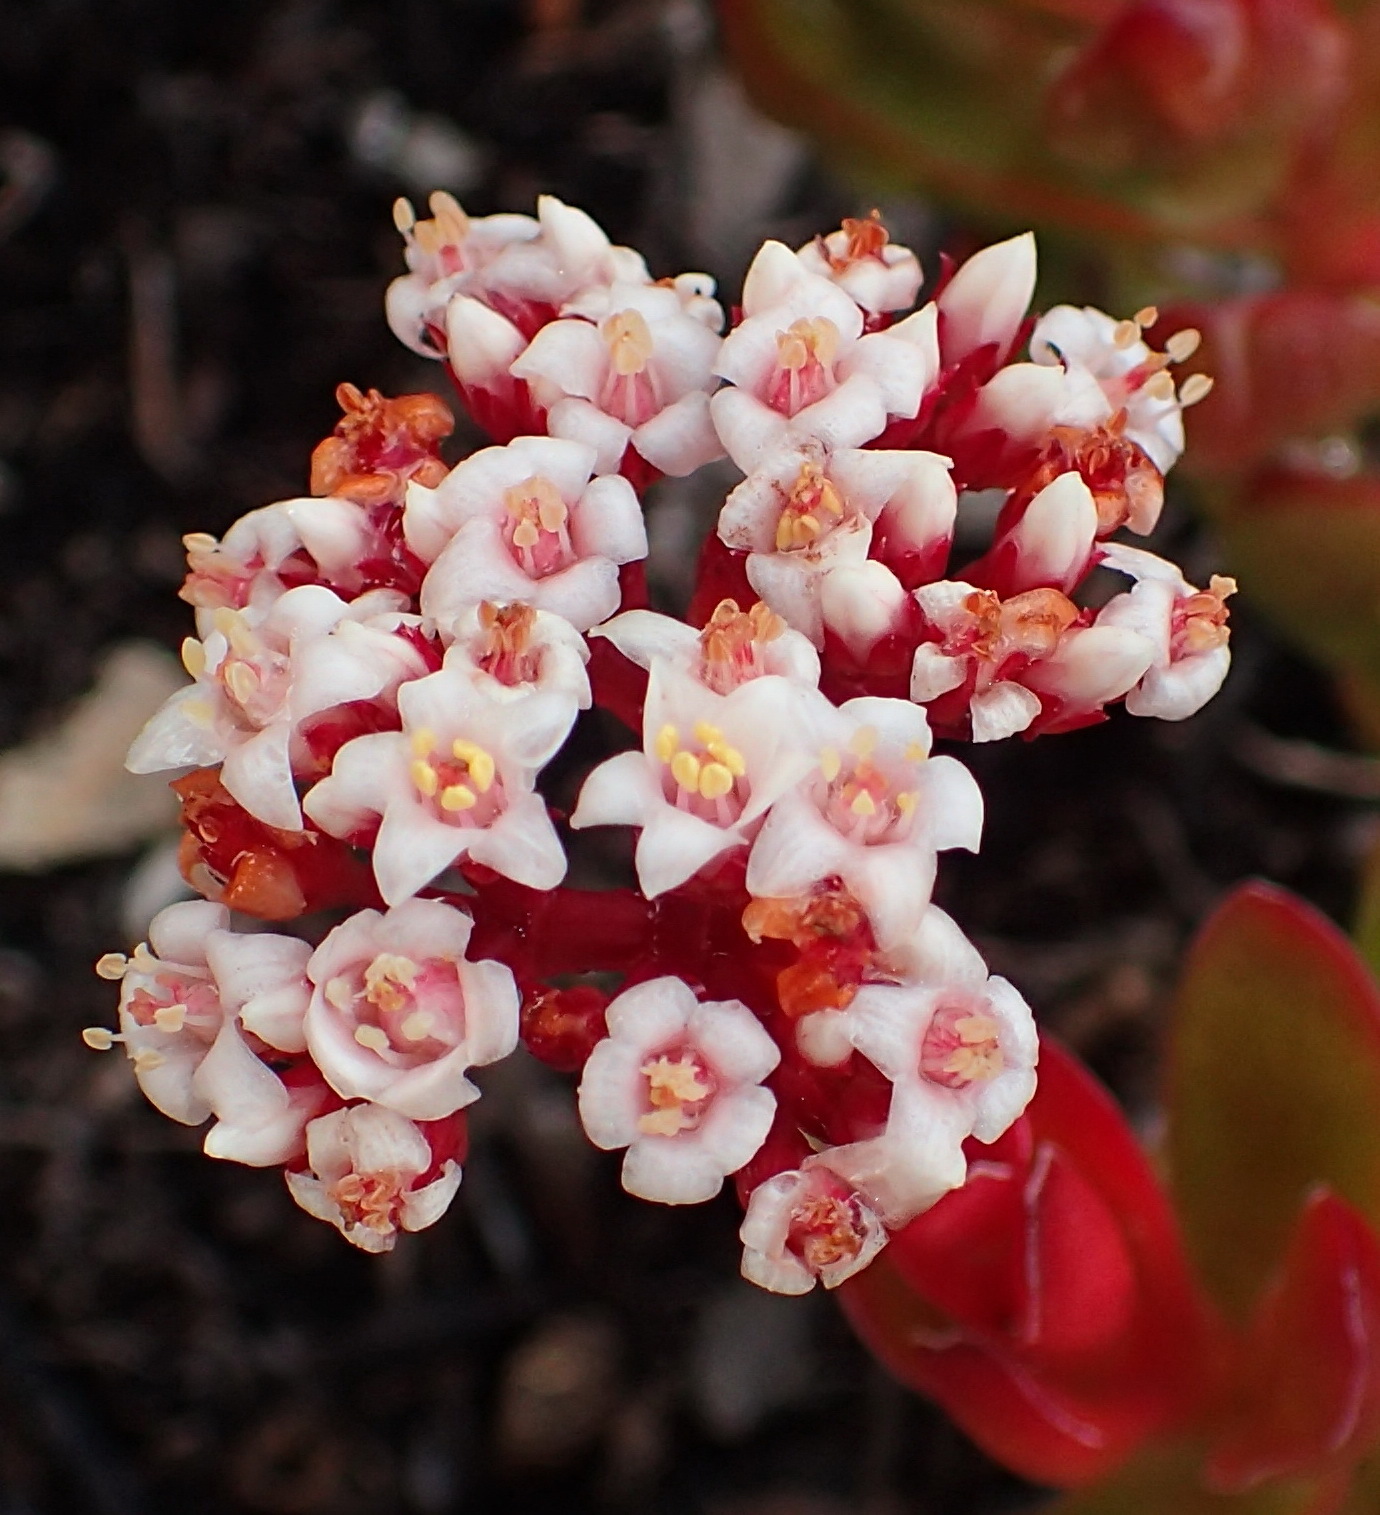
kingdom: Plantae
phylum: Tracheophyta
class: Magnoliopsida
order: Saxifragales
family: Crassulaceae
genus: Crassula
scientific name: Crassula rubricaulis
